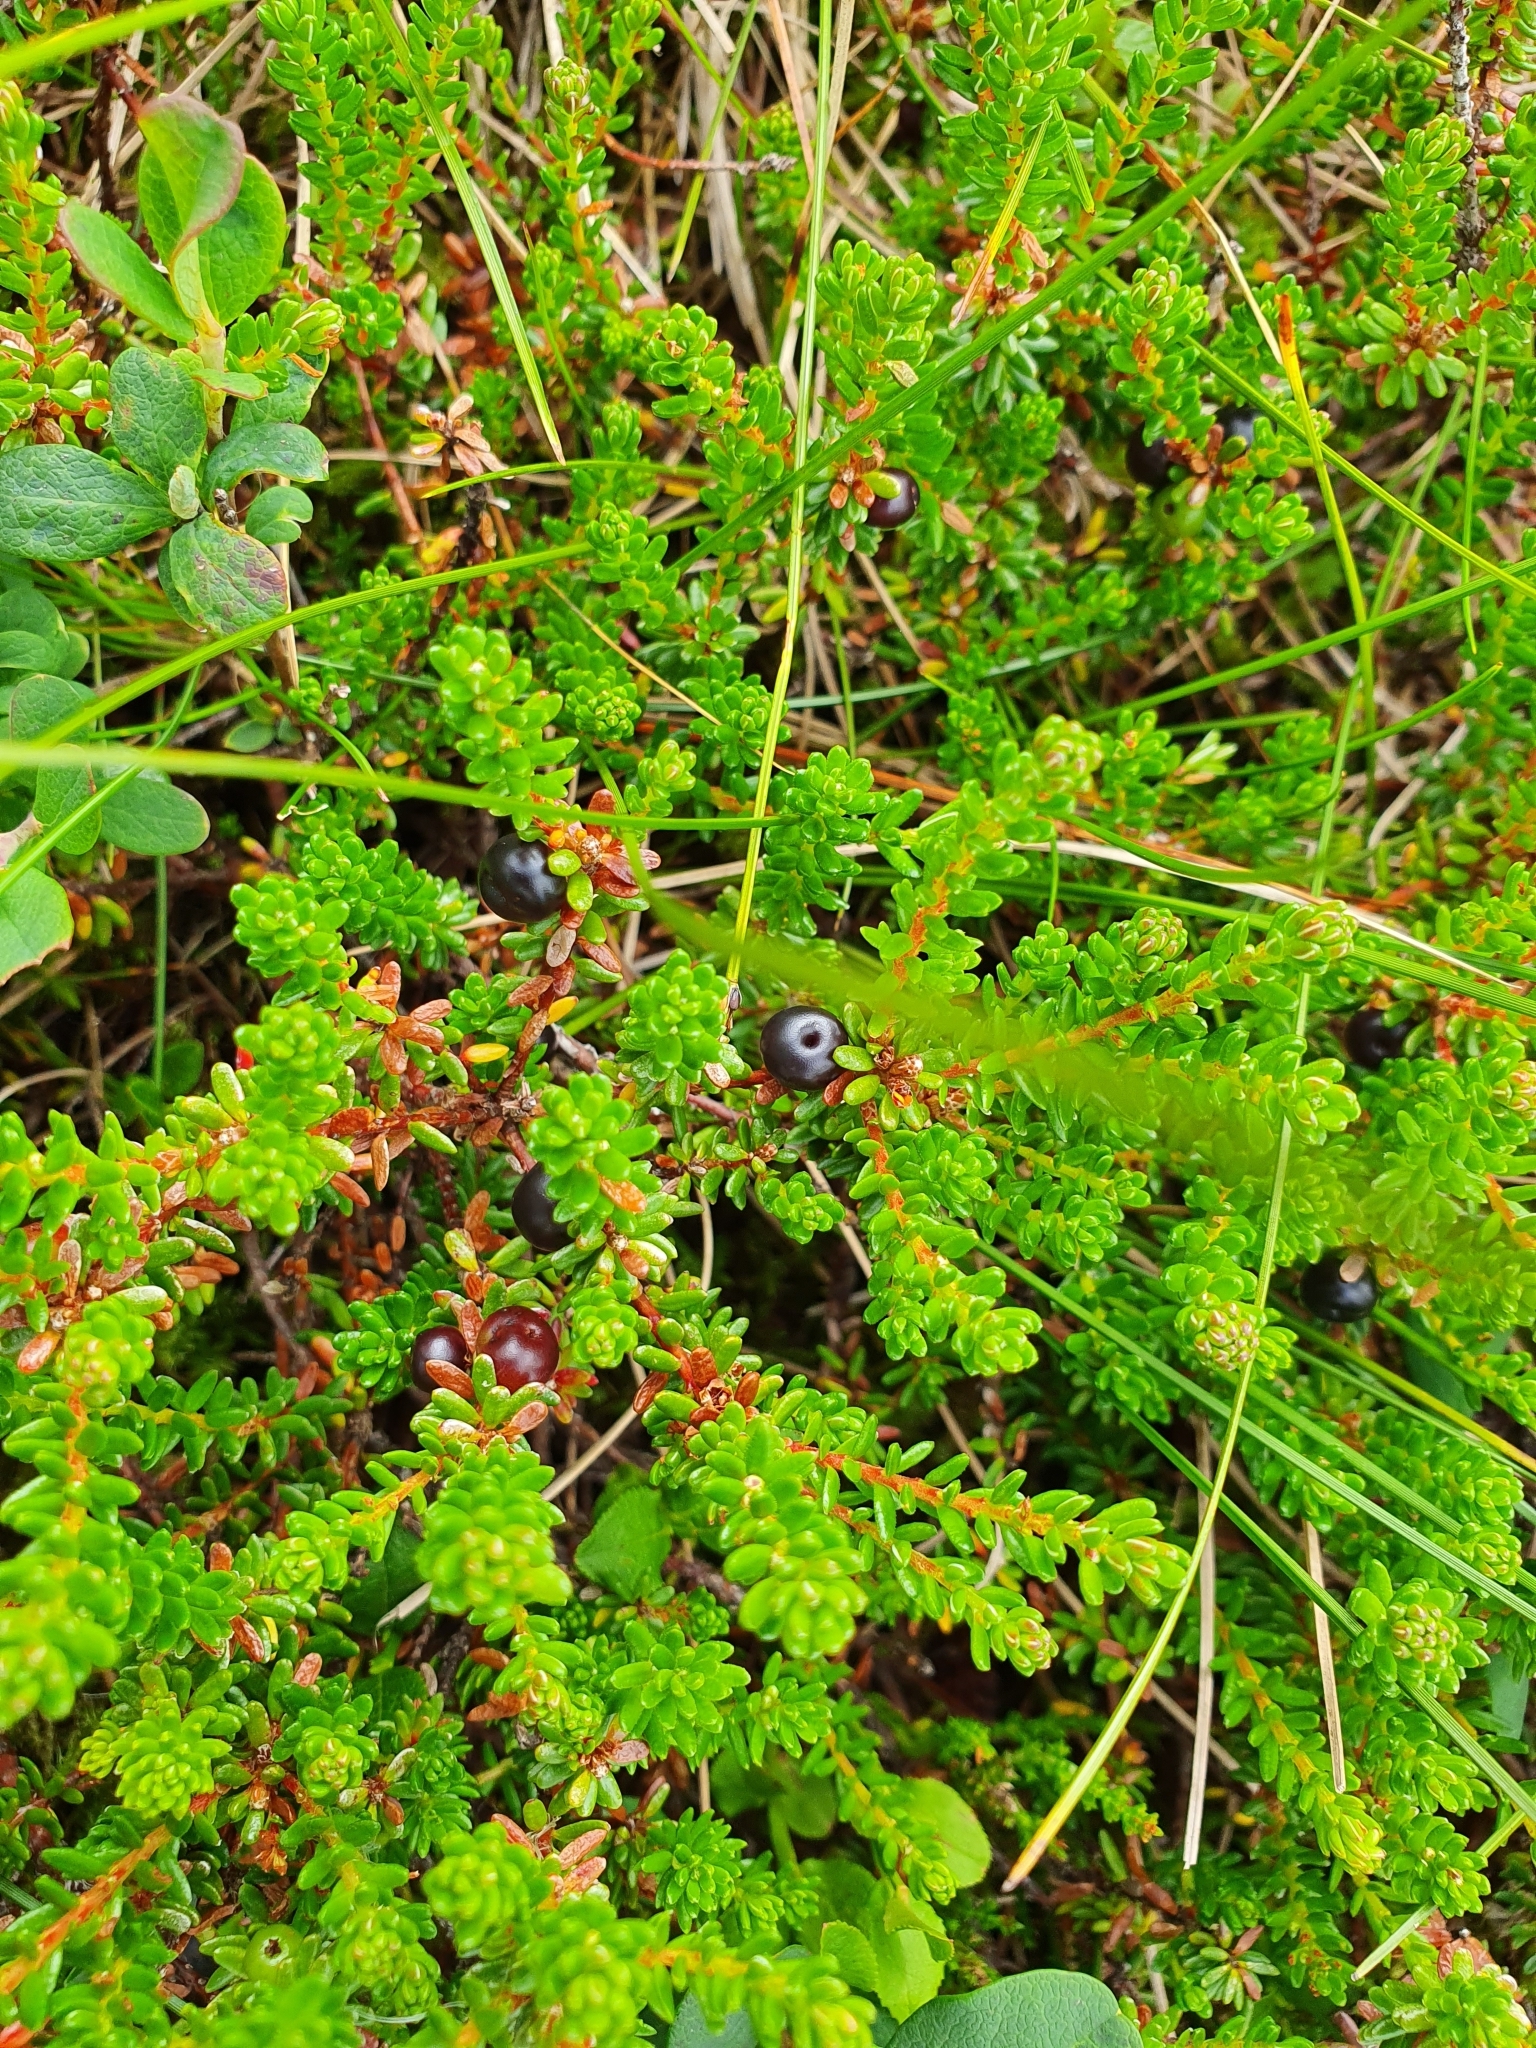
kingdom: Plantae
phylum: Tracheophyta
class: Magnoliopsida
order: Ericales
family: Ericaceae
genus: Empetrum
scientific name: Empetrum nigrum
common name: Black crowberry
